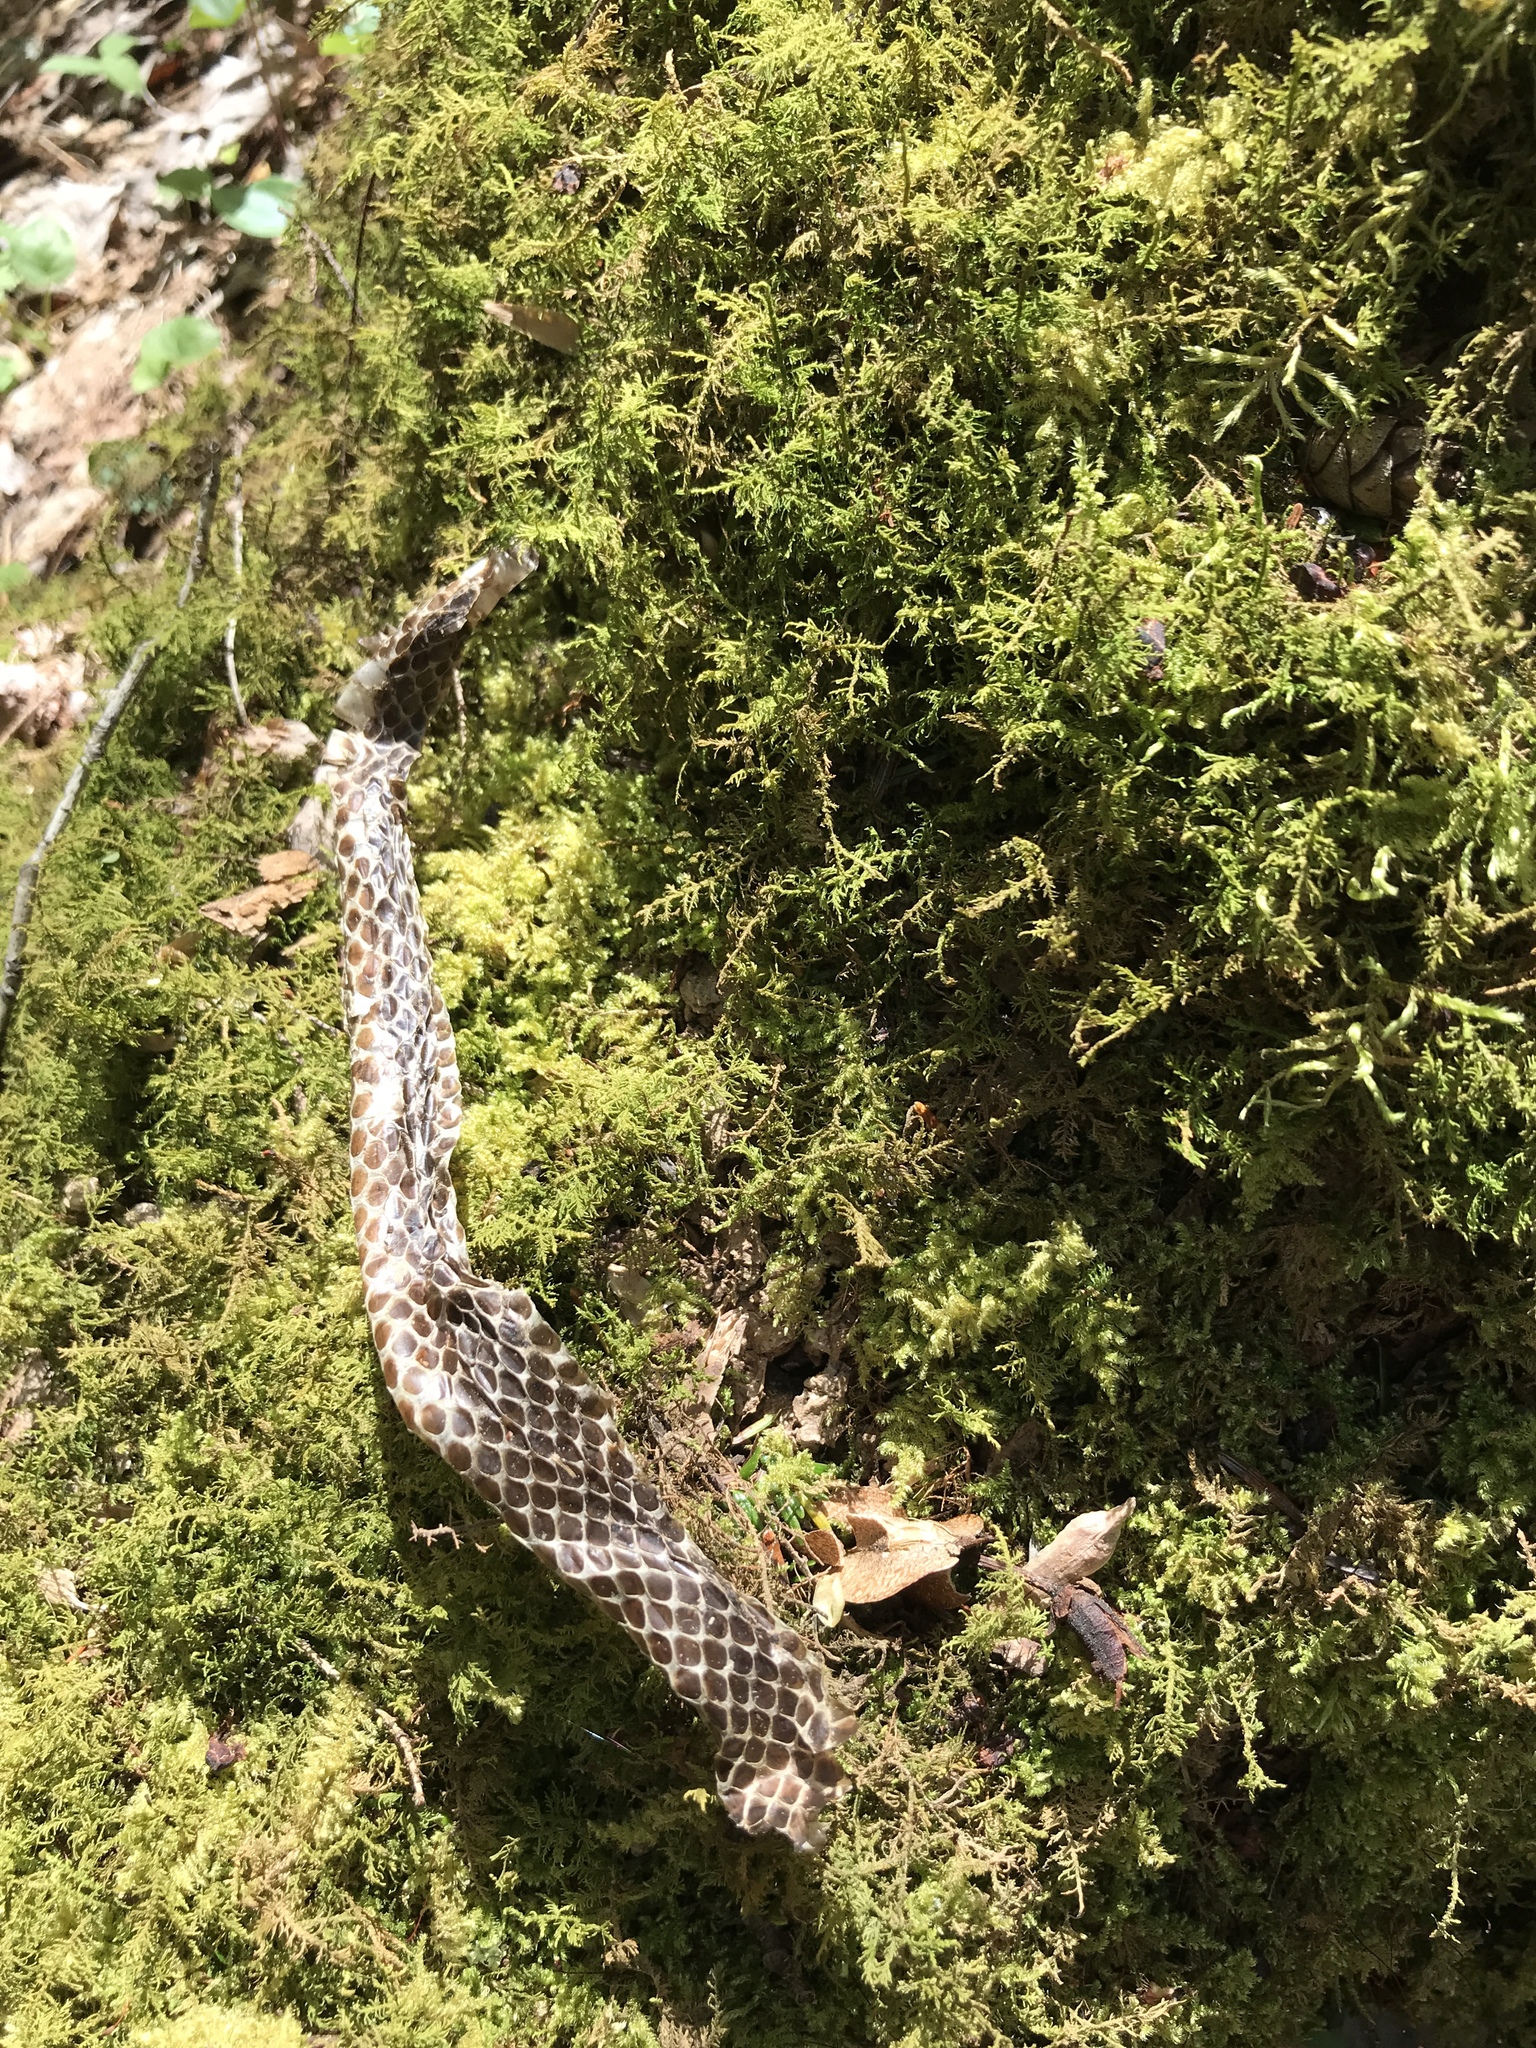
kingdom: Animalia
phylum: Chordata
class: Squamata
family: Viperidae
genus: Crotalus
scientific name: Crotalus horridus
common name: Timber rattlesnake
